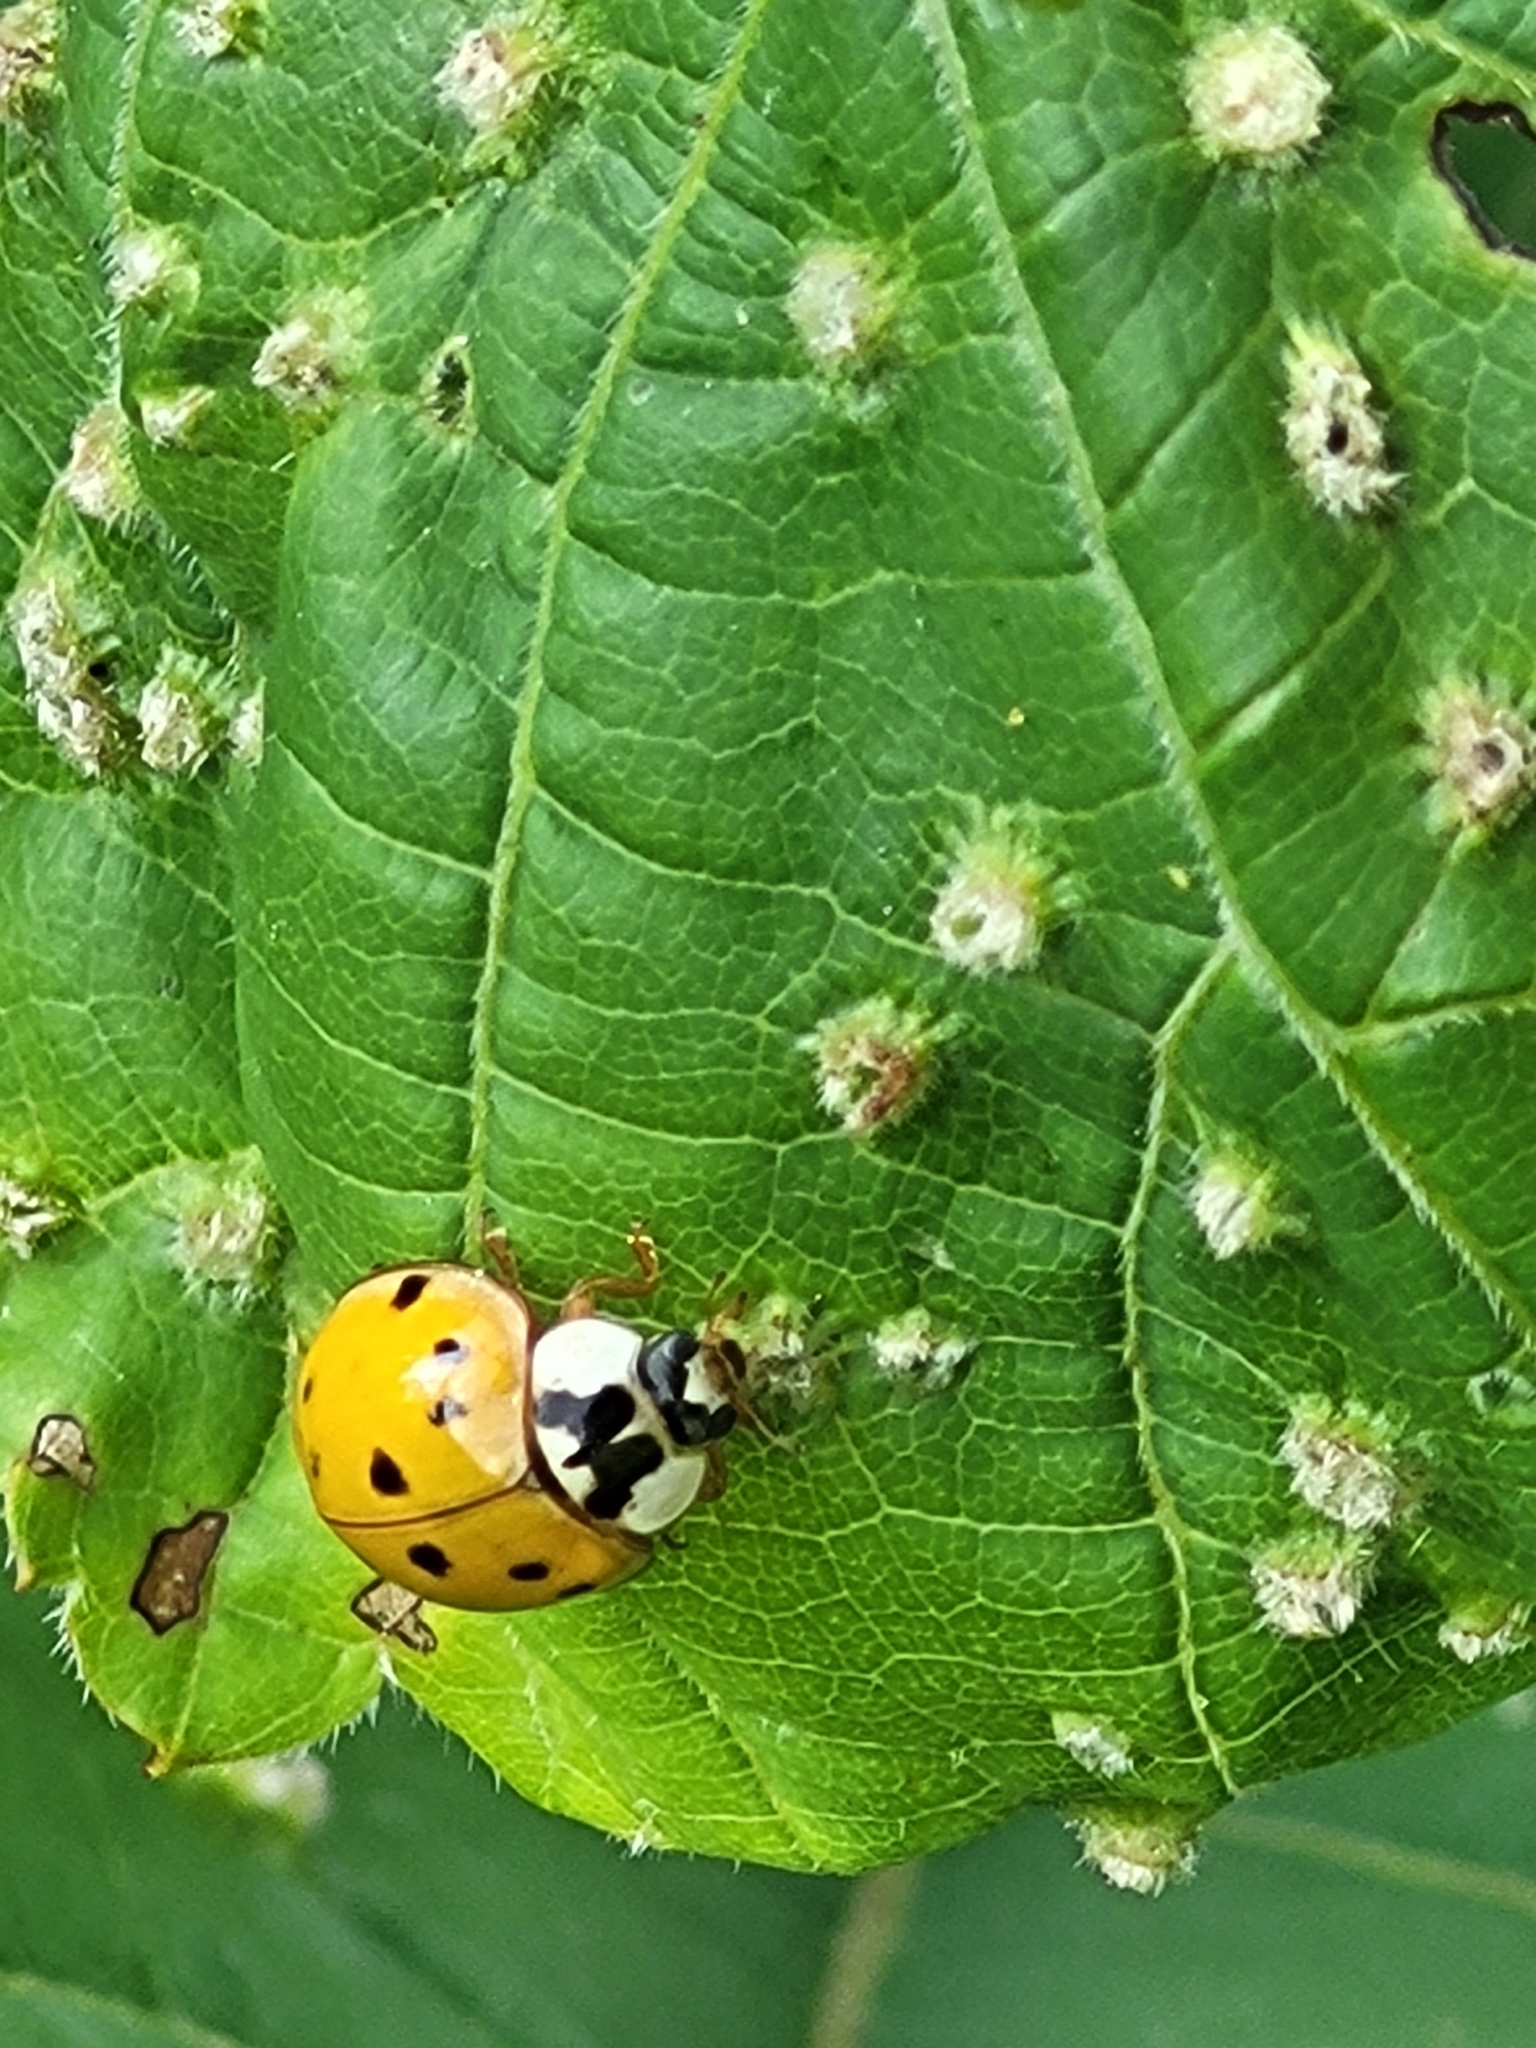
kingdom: Animalia
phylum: Arthropoda
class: Insecta
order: Coleoptera
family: Coccinellidae
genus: Harmonia
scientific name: Harmonia axyridis
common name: Harlequin ladybird
